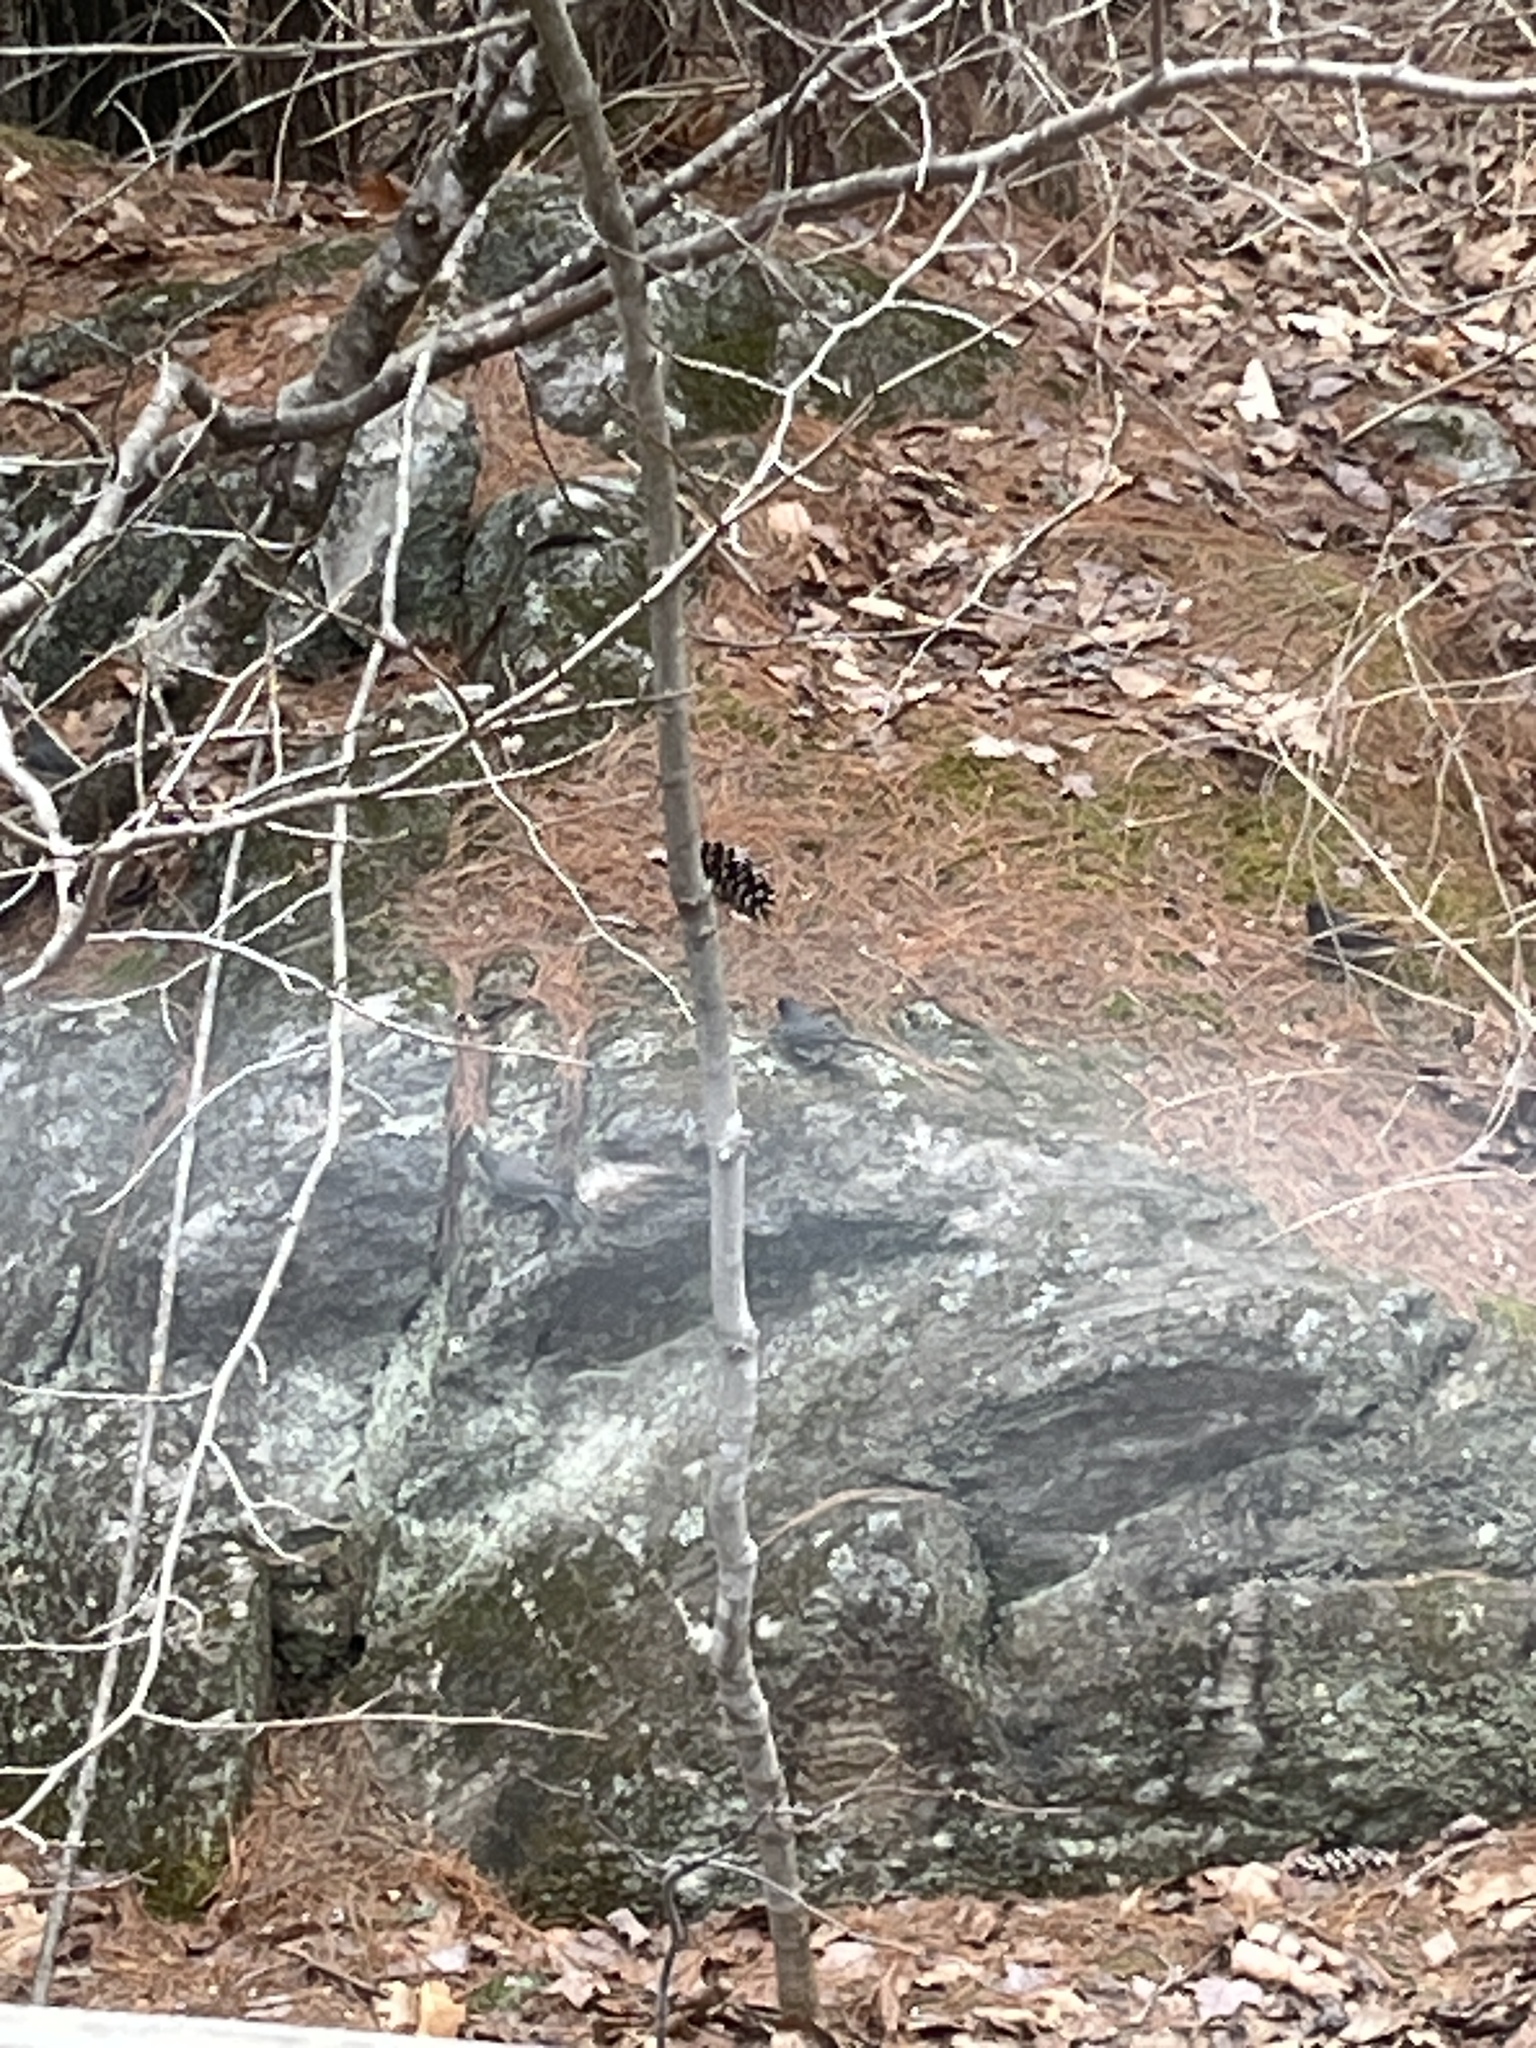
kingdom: Animalia
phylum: Chordata
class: Aves
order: Passeriformes
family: Passerellidae
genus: Junco
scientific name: Junco hyemalis
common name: Dark-eyed junco
